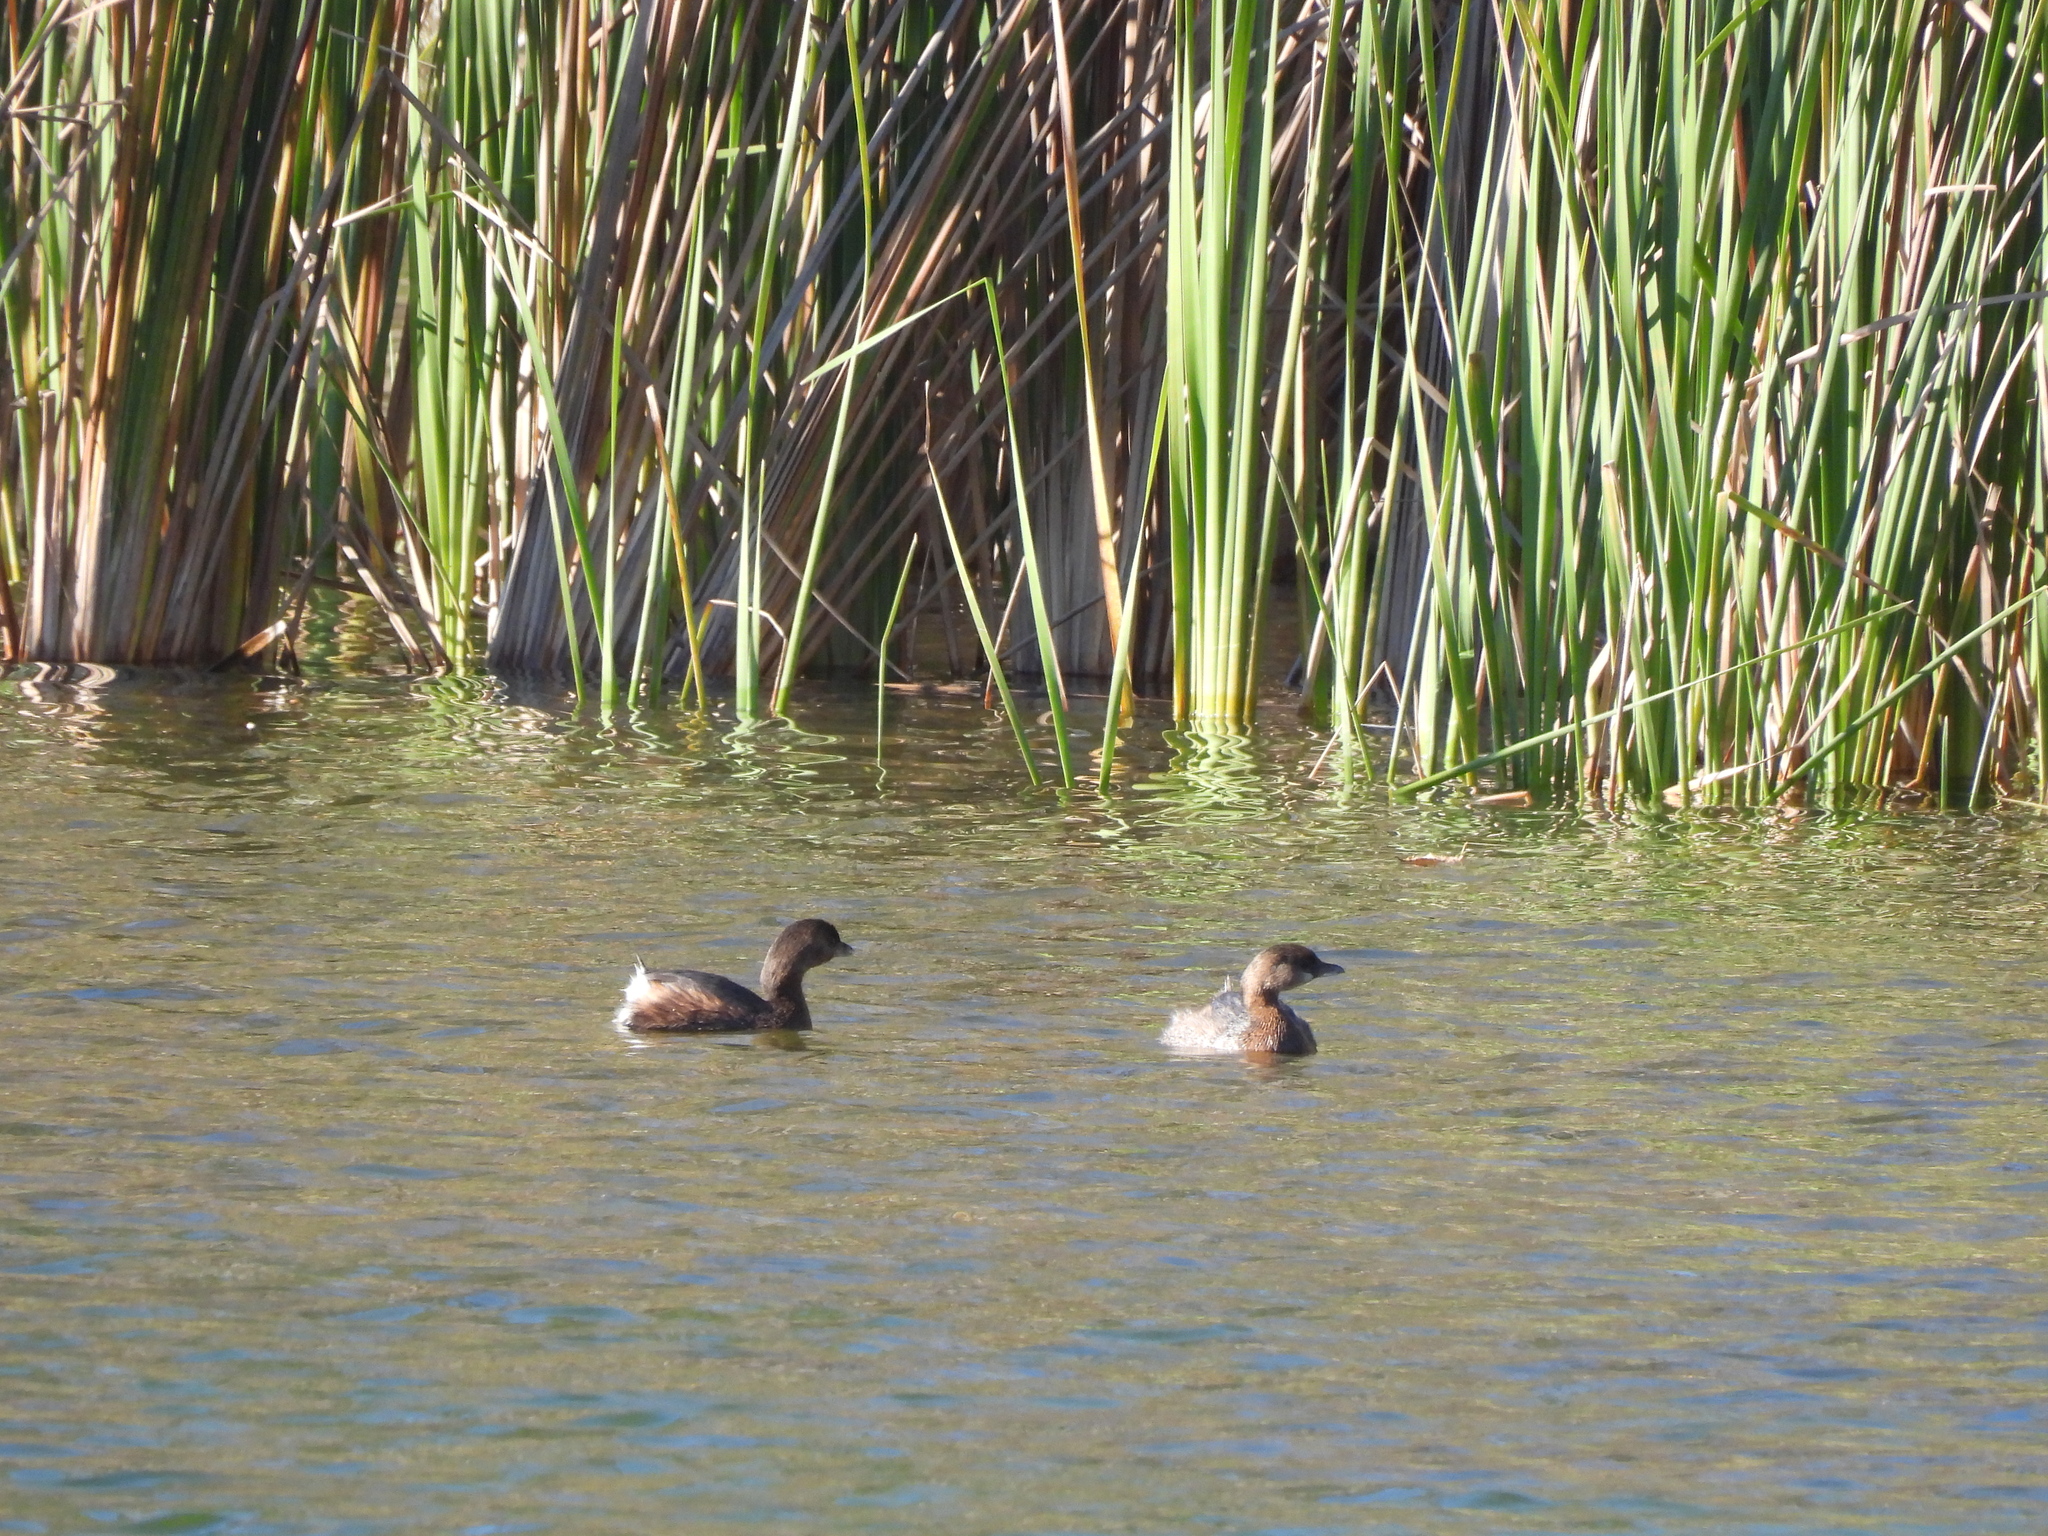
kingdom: Animalia
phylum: Chordata
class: Aves
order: Podicipediformes
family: Podicipedidae
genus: Podilymbus
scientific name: Podilymbus podiceps
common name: Pied-billed grebe
